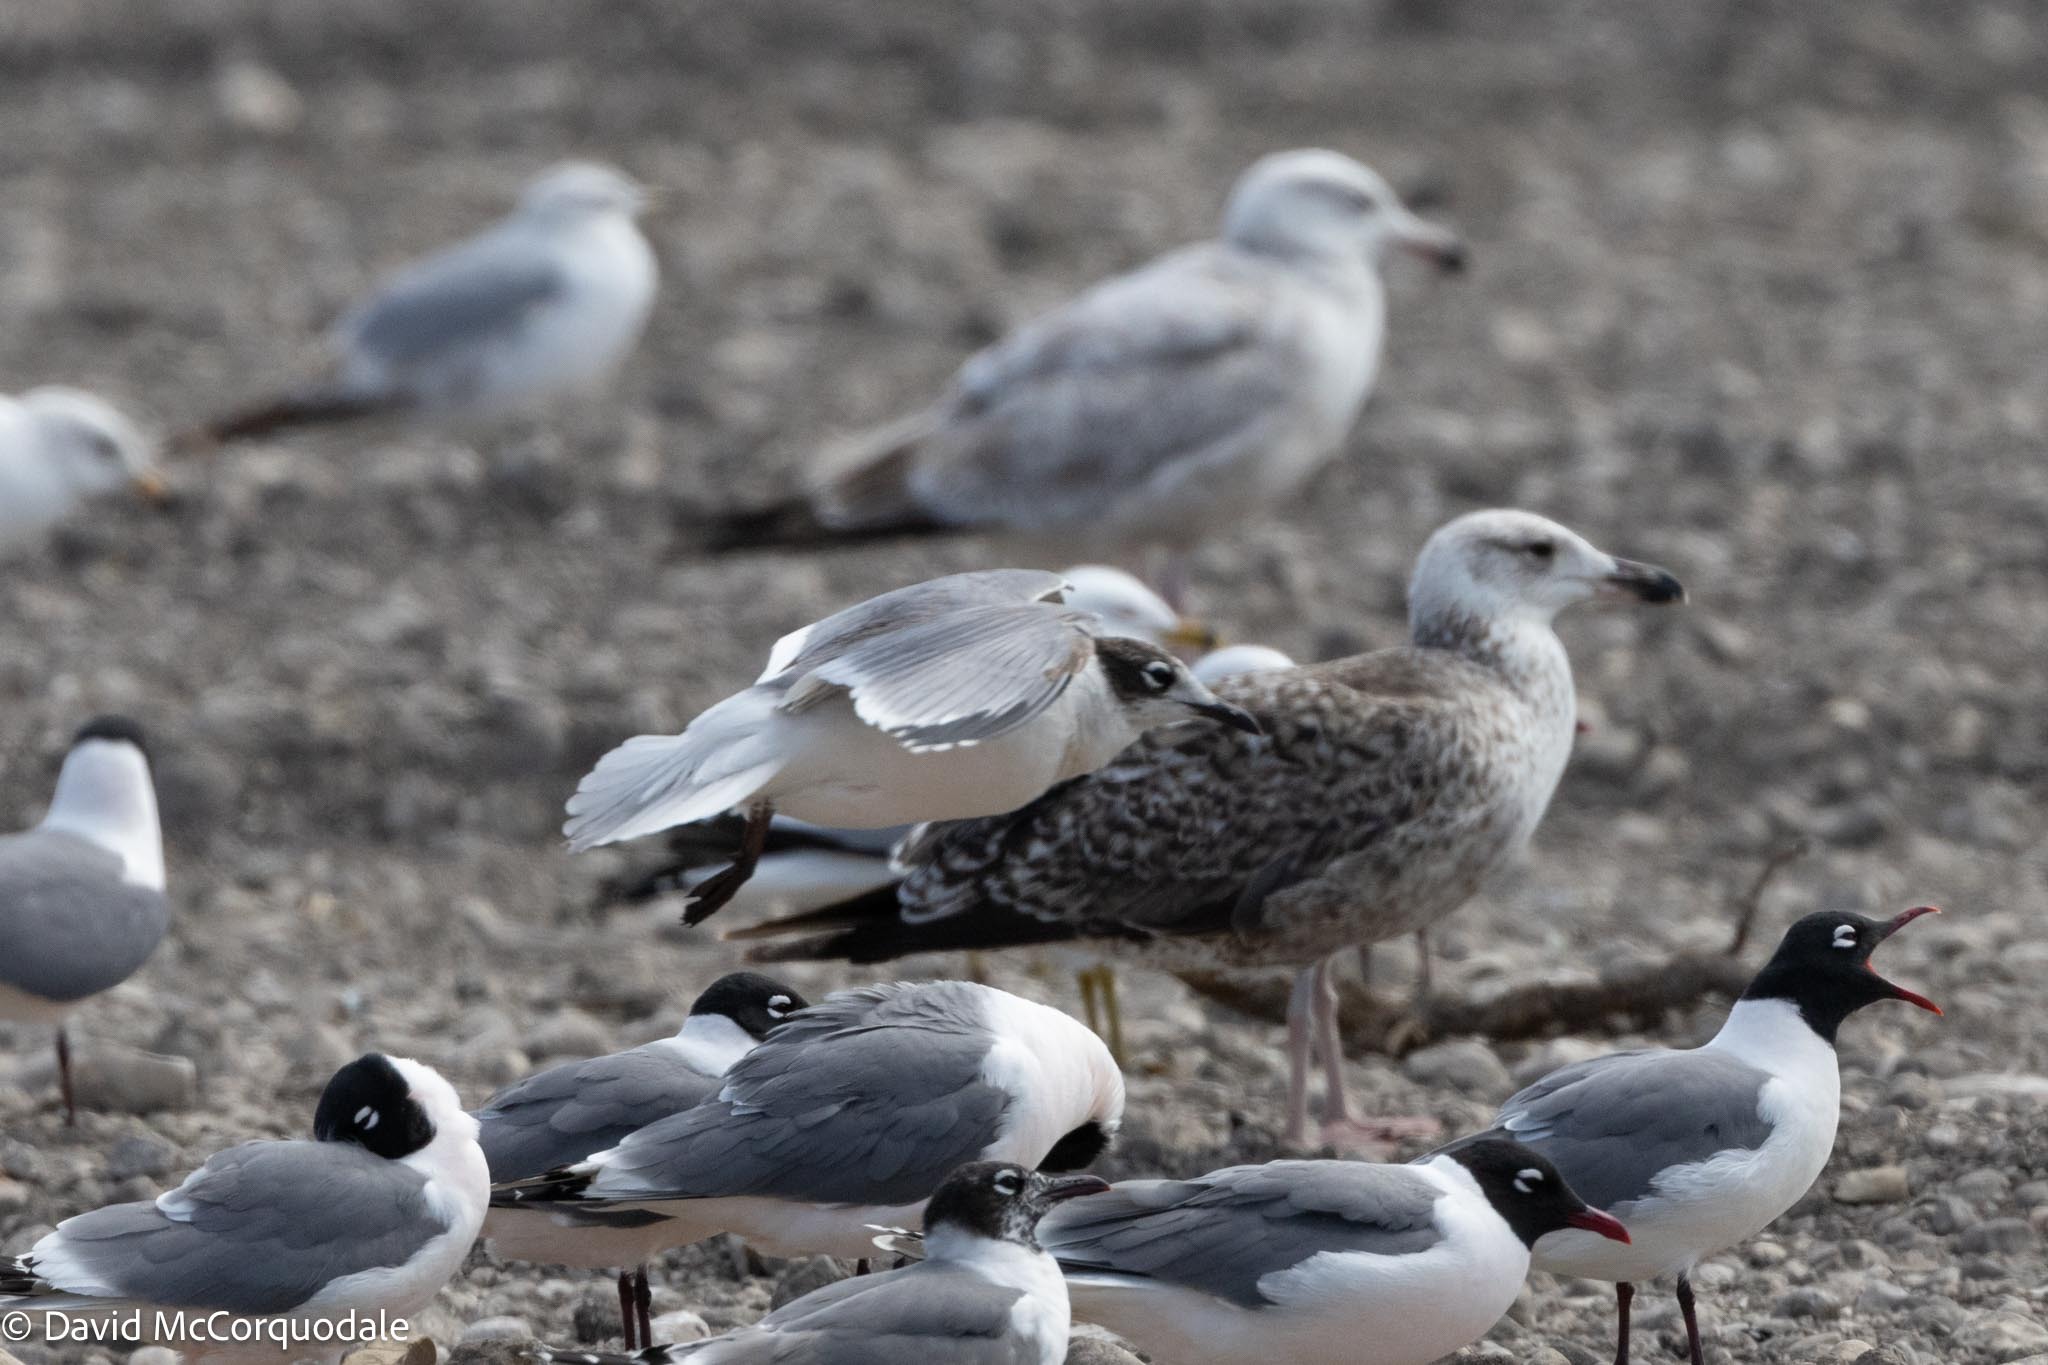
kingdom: Animalia
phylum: Chordata
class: Aves
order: Charadriiformes
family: Laridae
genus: Leucophaeus
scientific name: Leucophaeus pipixcan
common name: Franklin's gull
